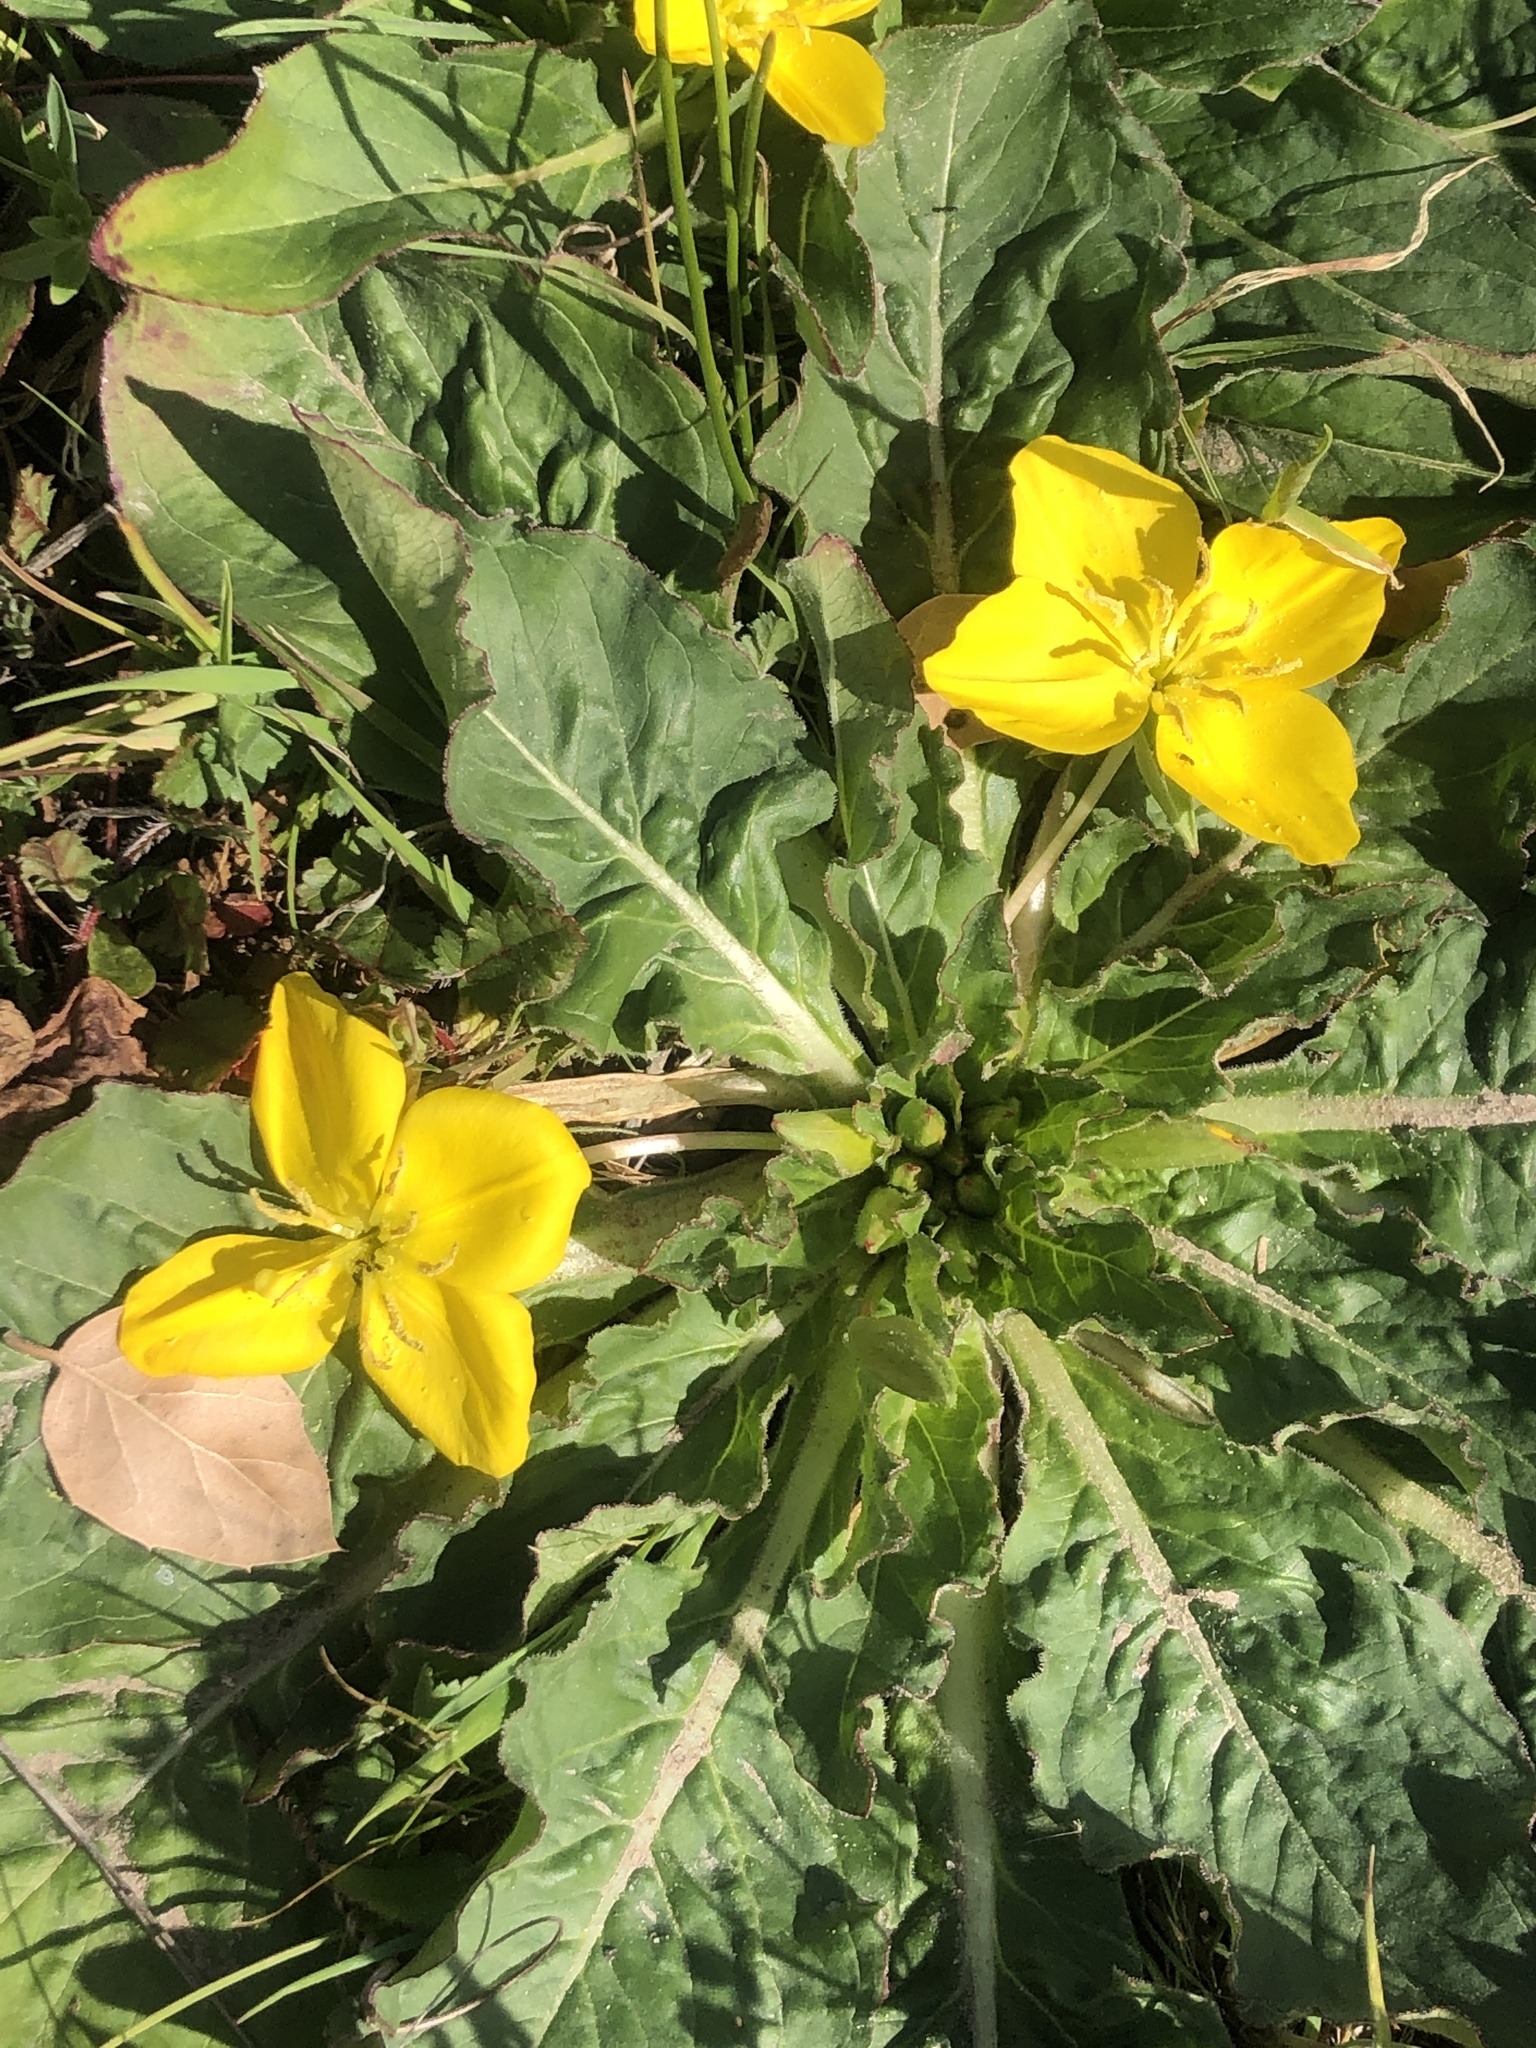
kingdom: Plantae
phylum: Tracheophyta
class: Magnoliopsida
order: Myrtales
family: Onagraceae
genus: Taraxia
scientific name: Taraxia ovata
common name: Goldeneggs
